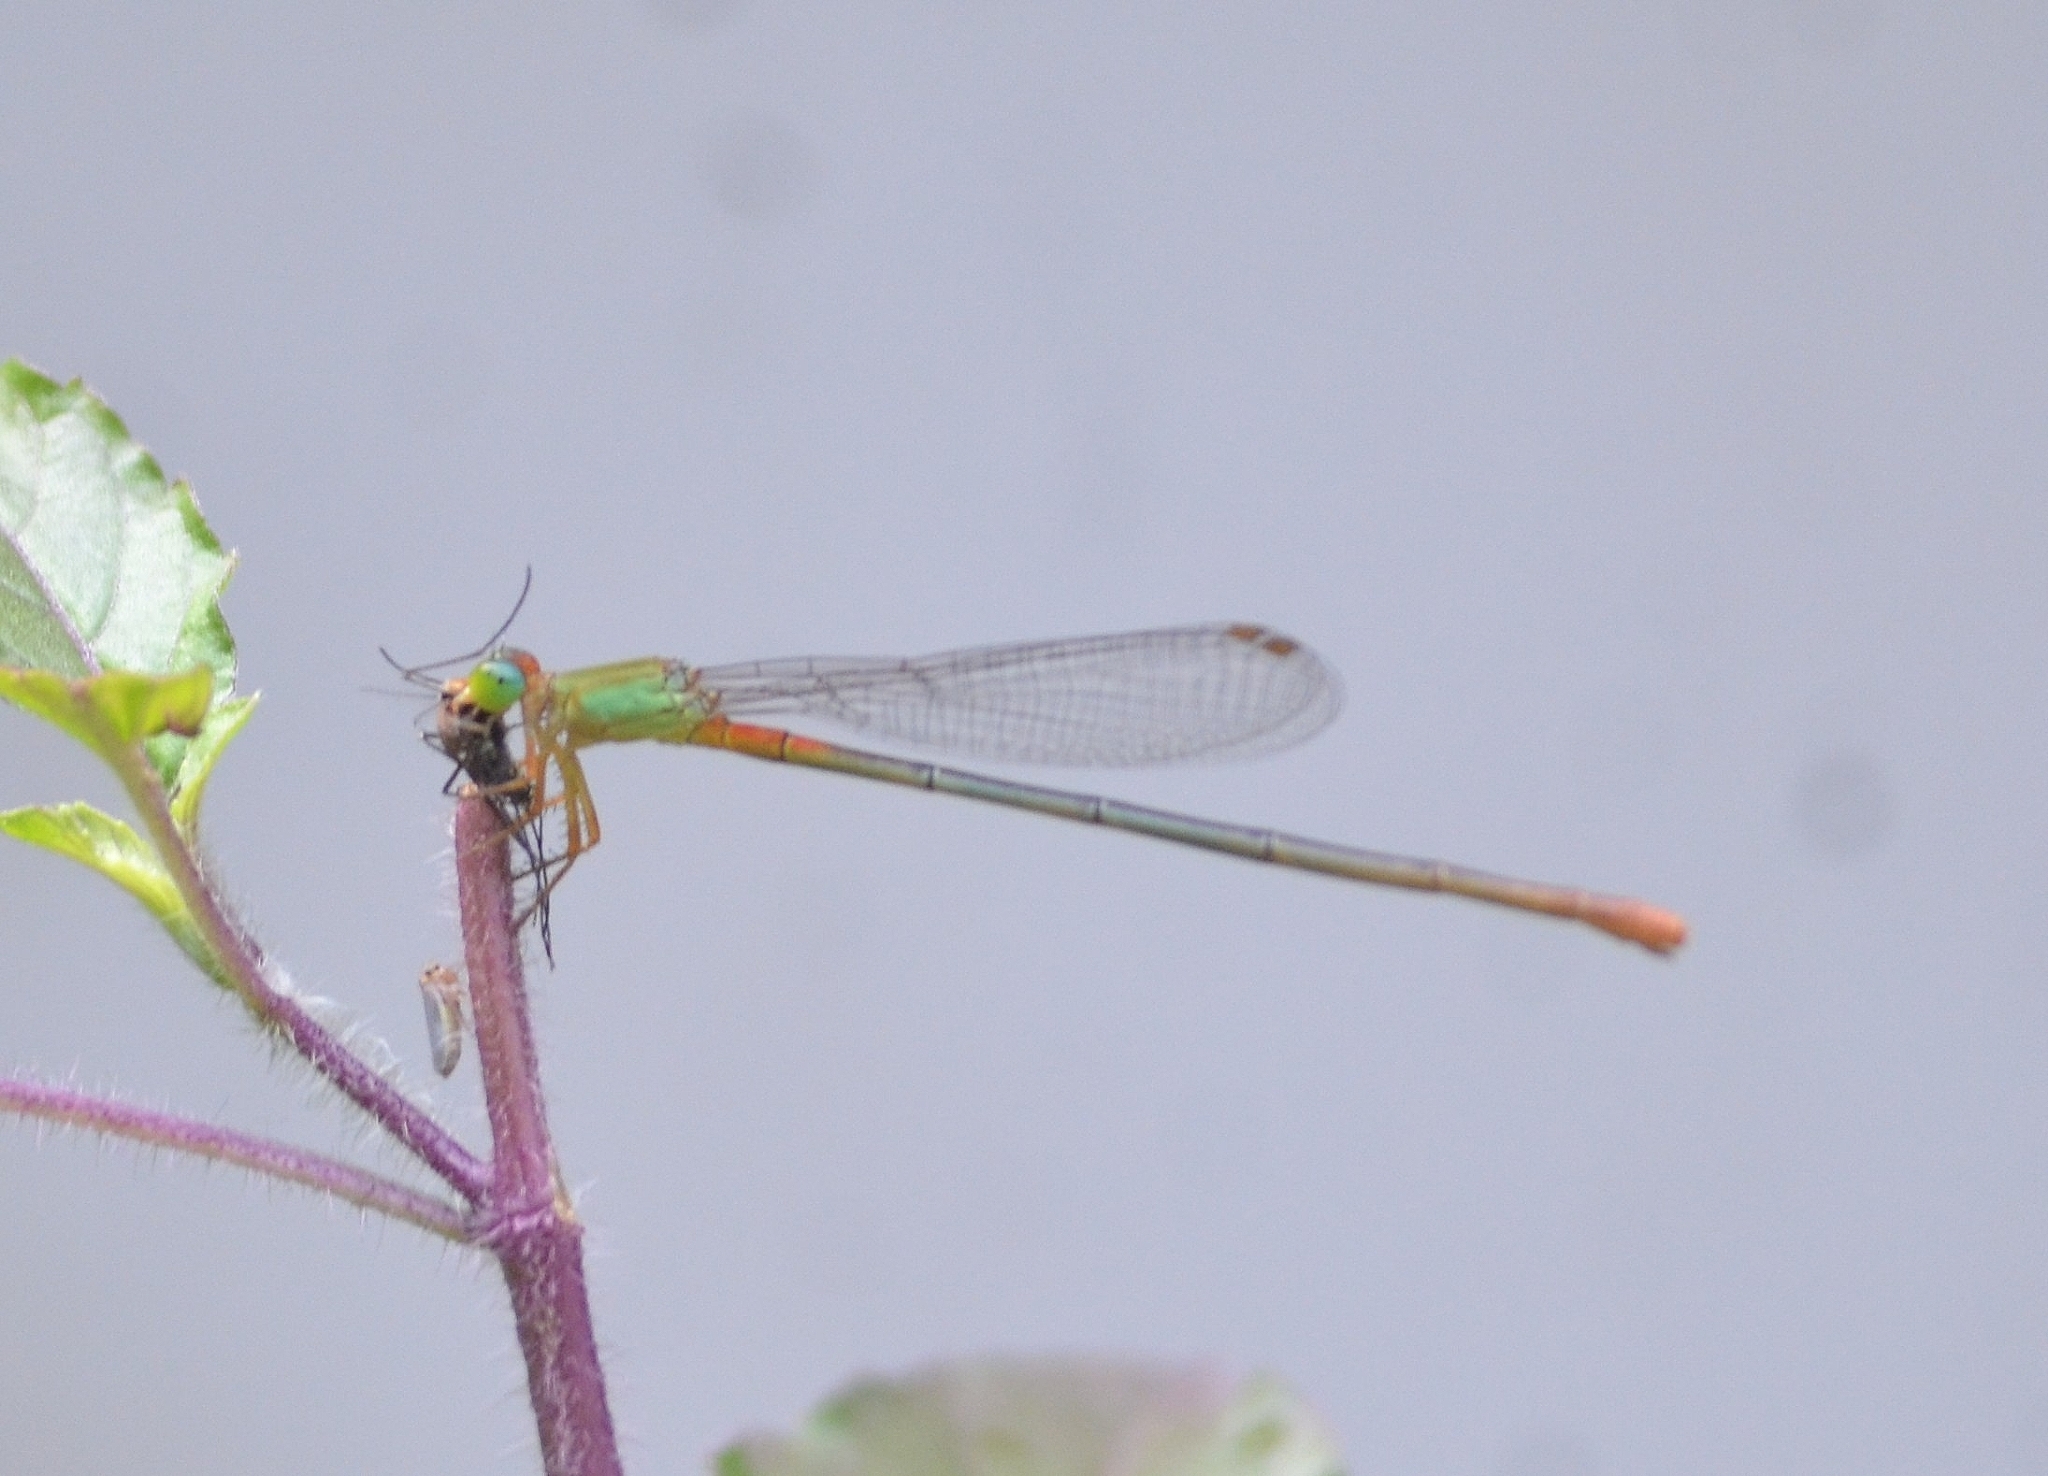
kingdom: Animalia
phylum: Arthropoda
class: Insecta
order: Odonata
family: Coenagrionidae
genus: Ceriagrion
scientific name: Ceriagrion cerinorubellum
